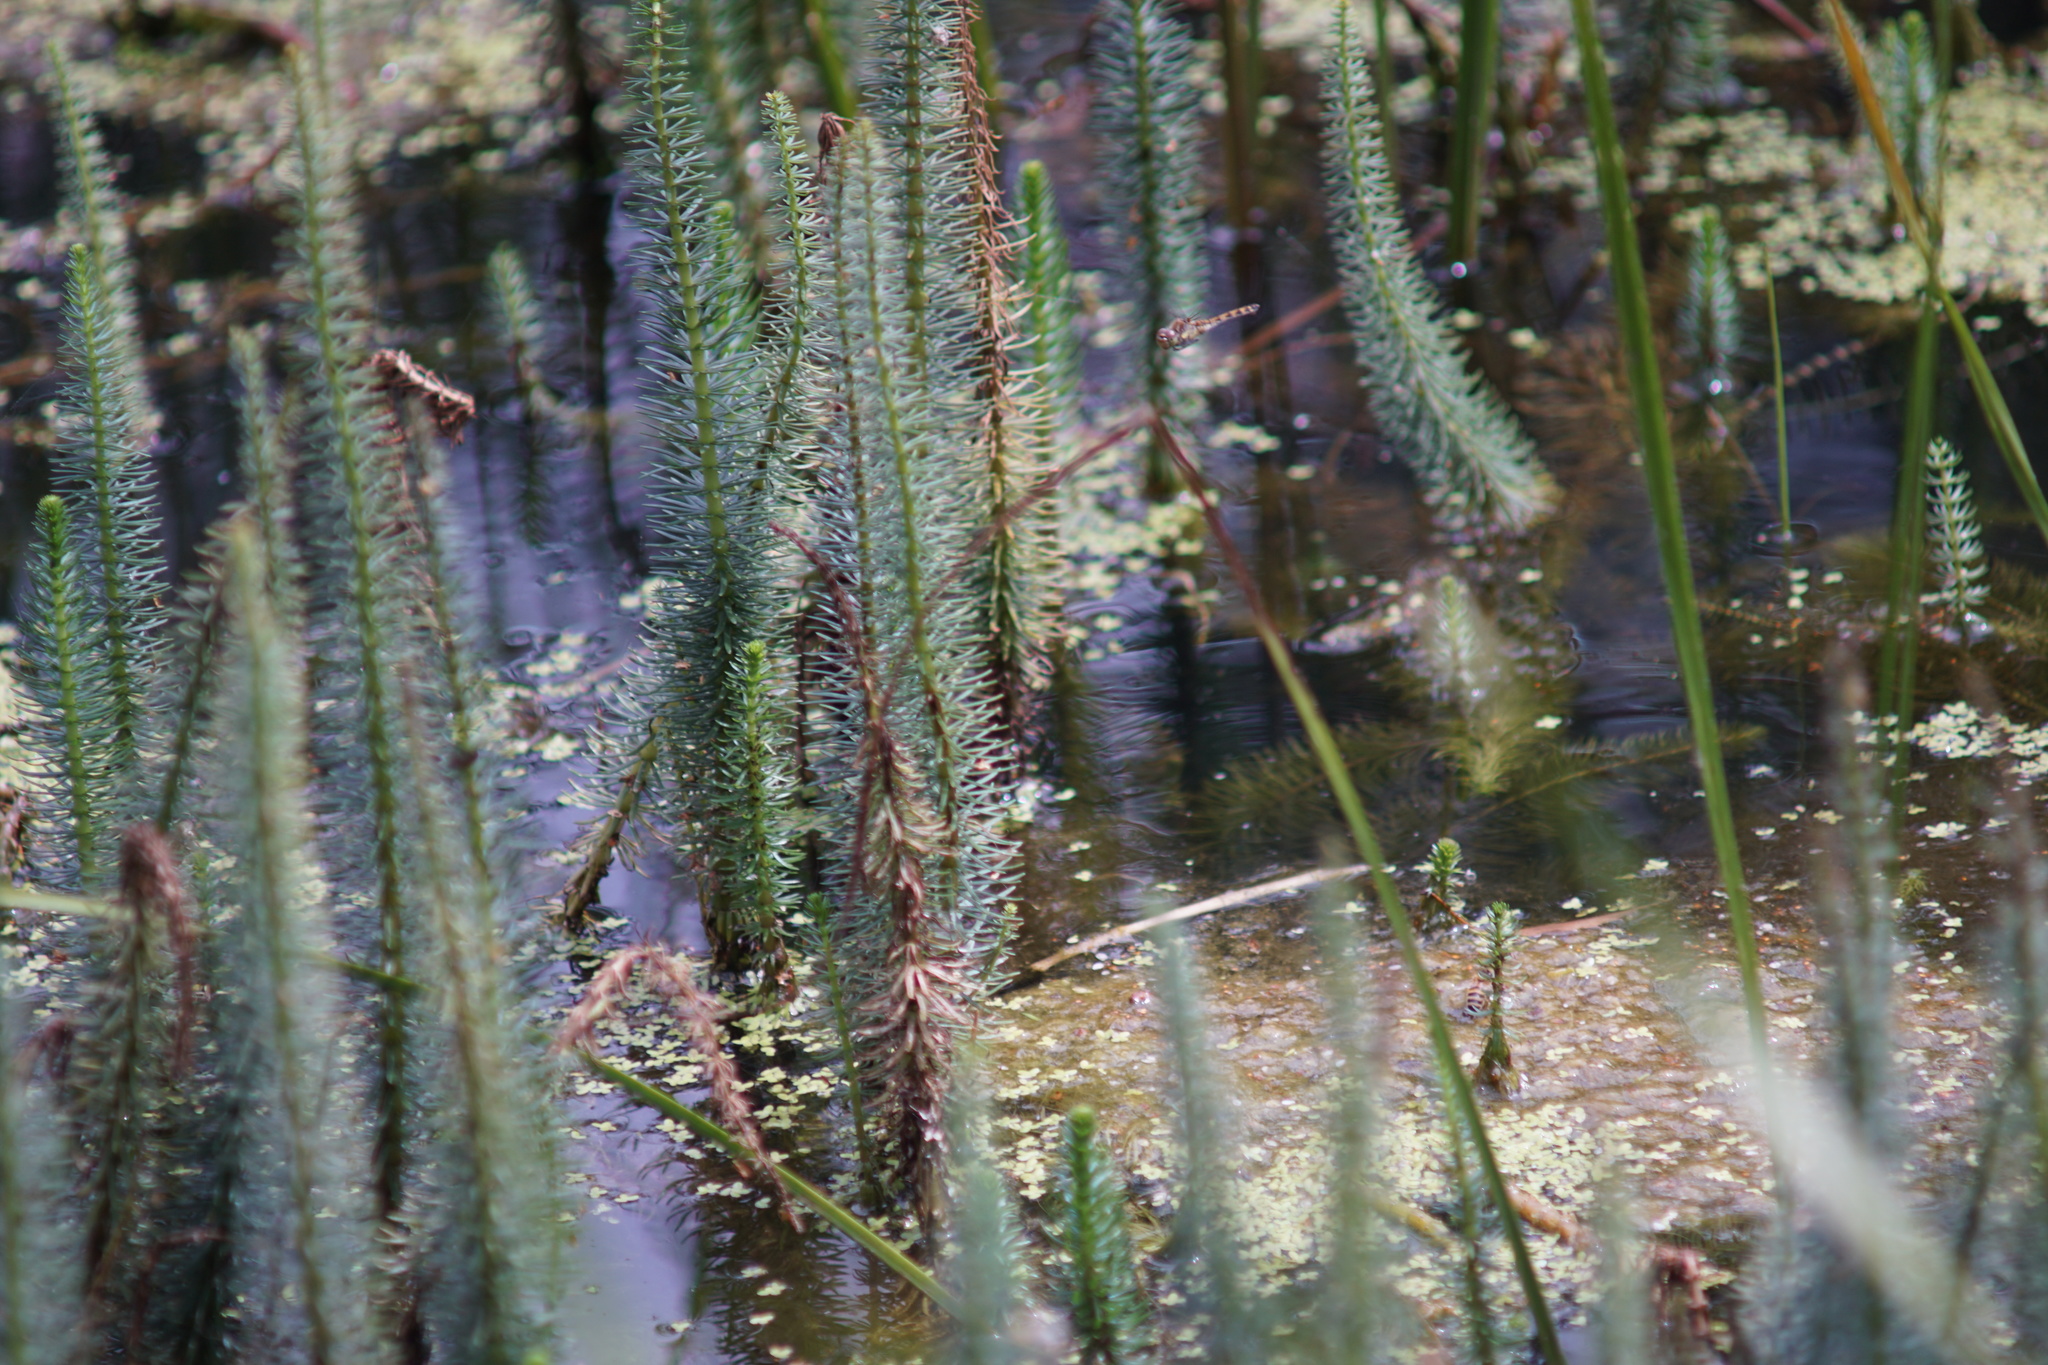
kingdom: Animalia
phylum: Arthropoda
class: Insecta
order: Odonata
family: Libellulidae
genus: Sympetrum
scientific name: Sympetrum striolatum
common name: Common darter
